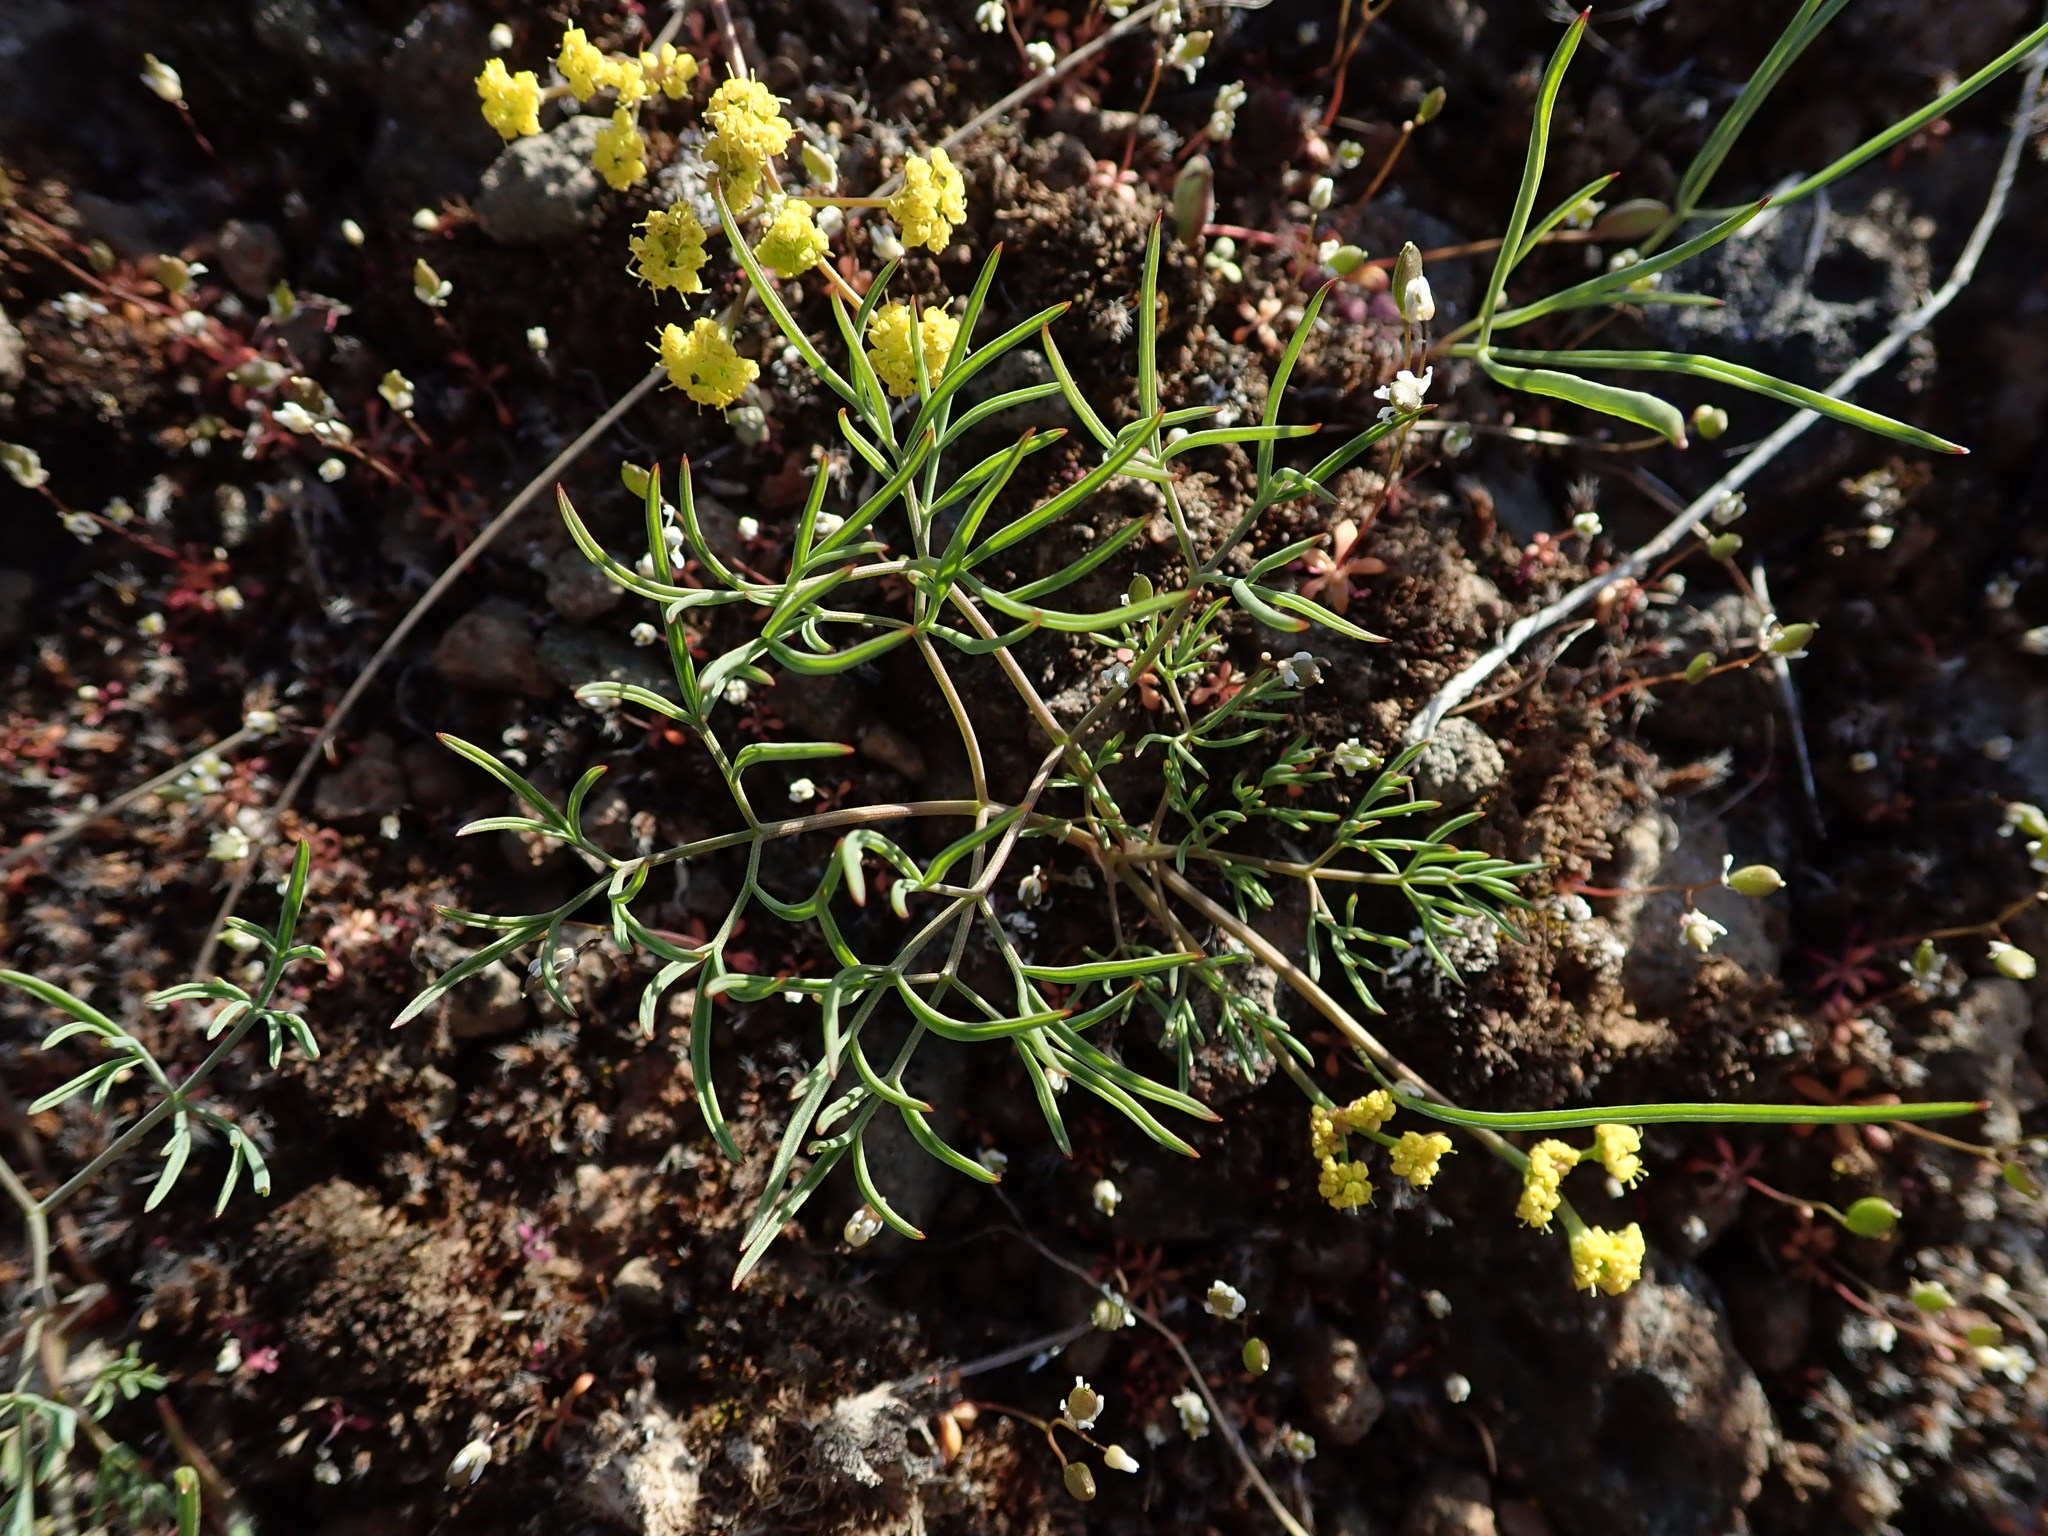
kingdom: Plantae
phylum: Tracheophyta
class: Magnoliopsida
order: Apiales
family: Apiaceae
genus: Lomatium
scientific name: Lomatium farinosum
